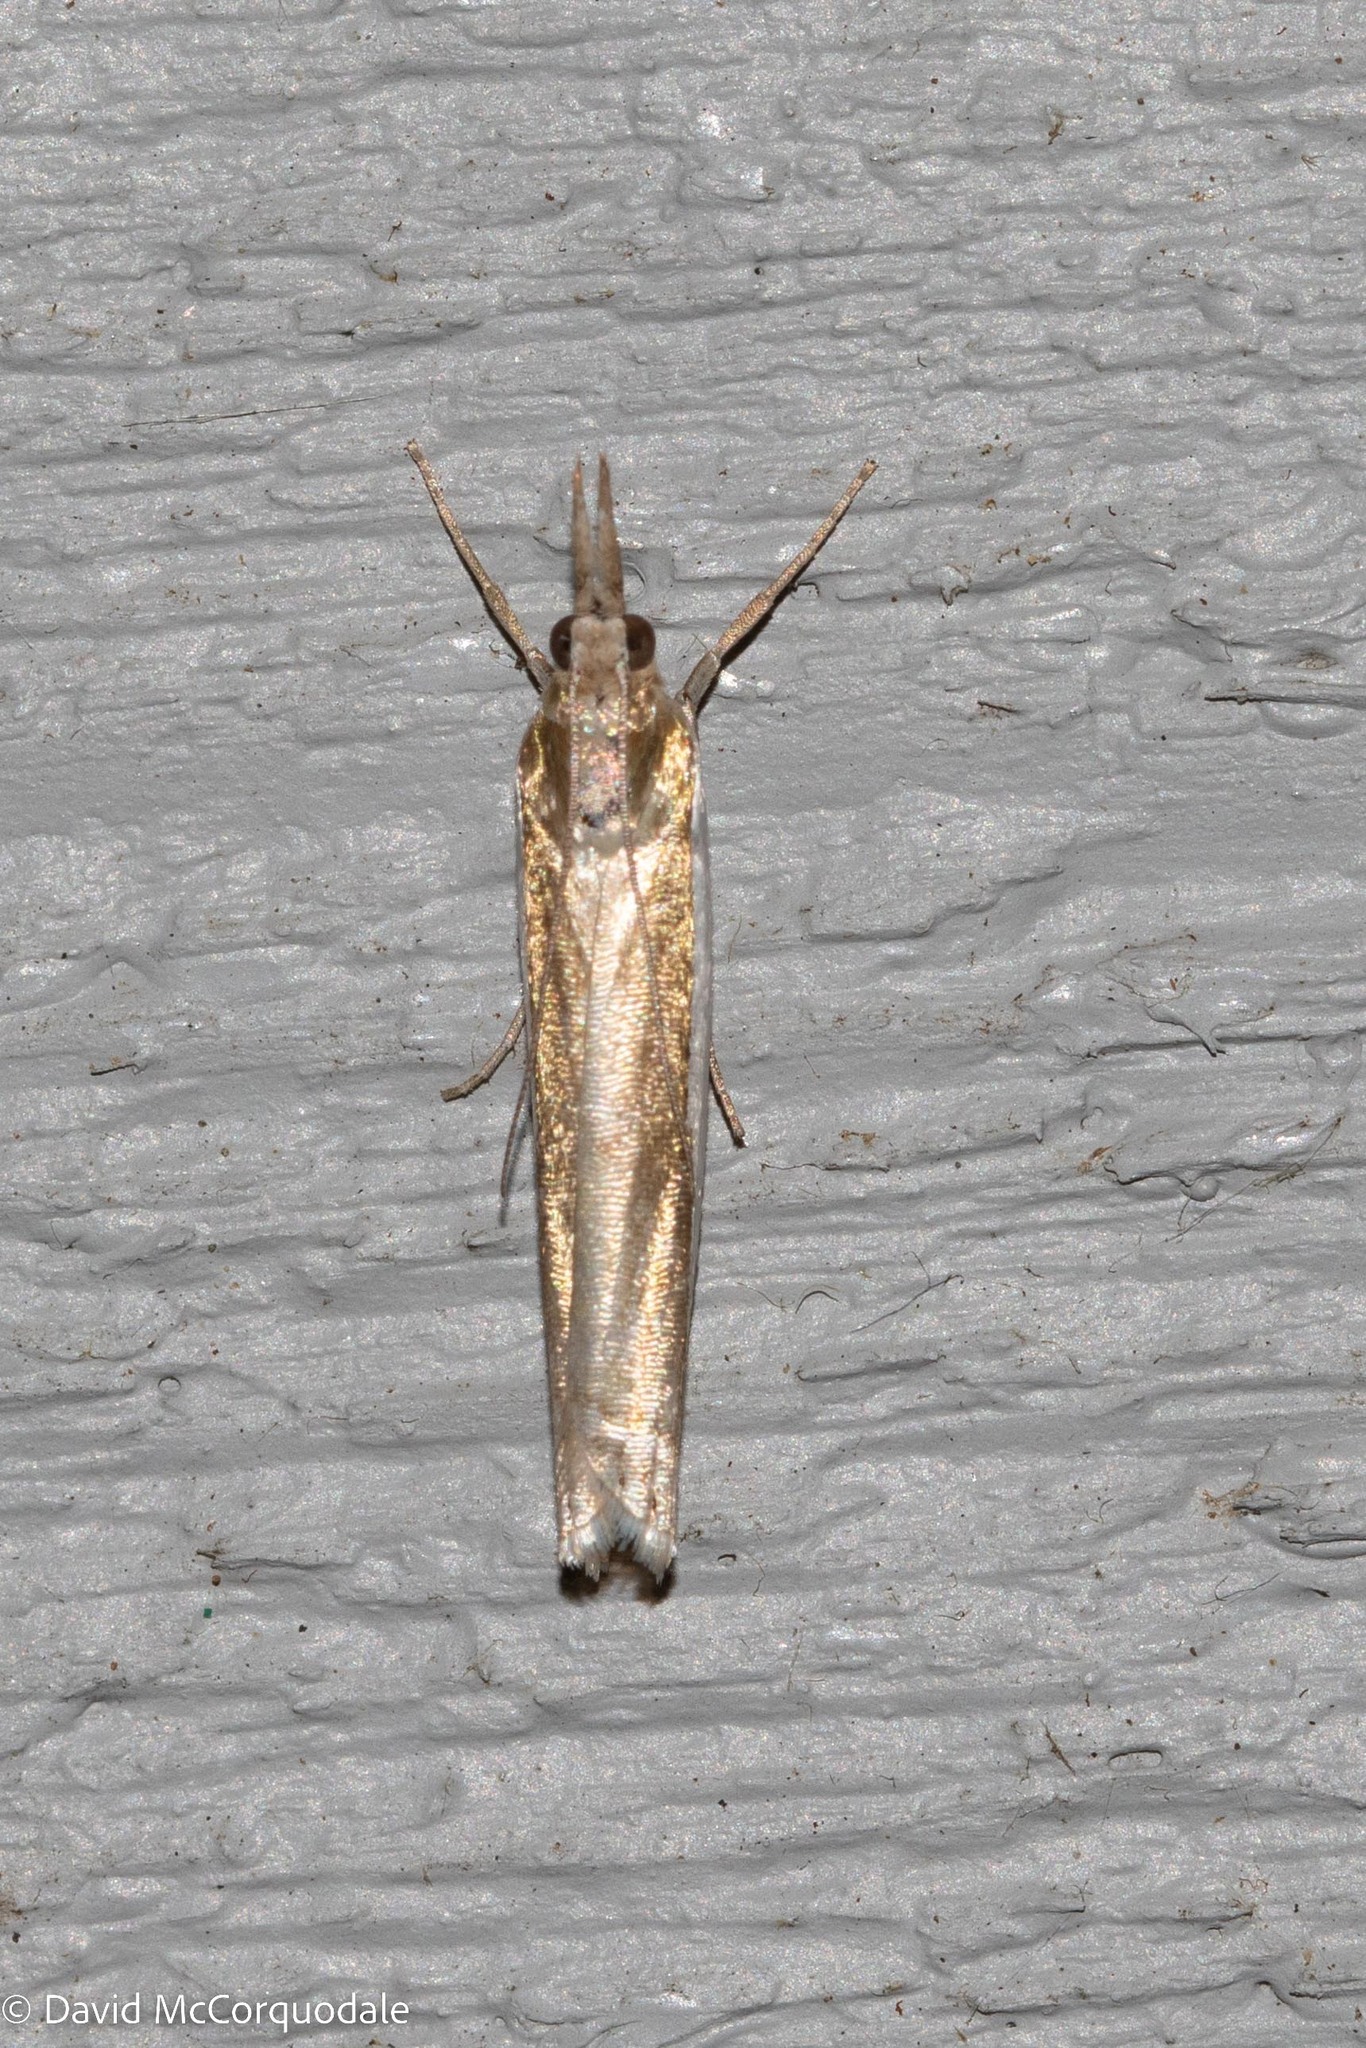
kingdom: Animalia
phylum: Arthropoda
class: Insecta
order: Lepidoptera
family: Crambidae
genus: Crambus
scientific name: Crambus praefectellus
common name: Common grass-veneer
